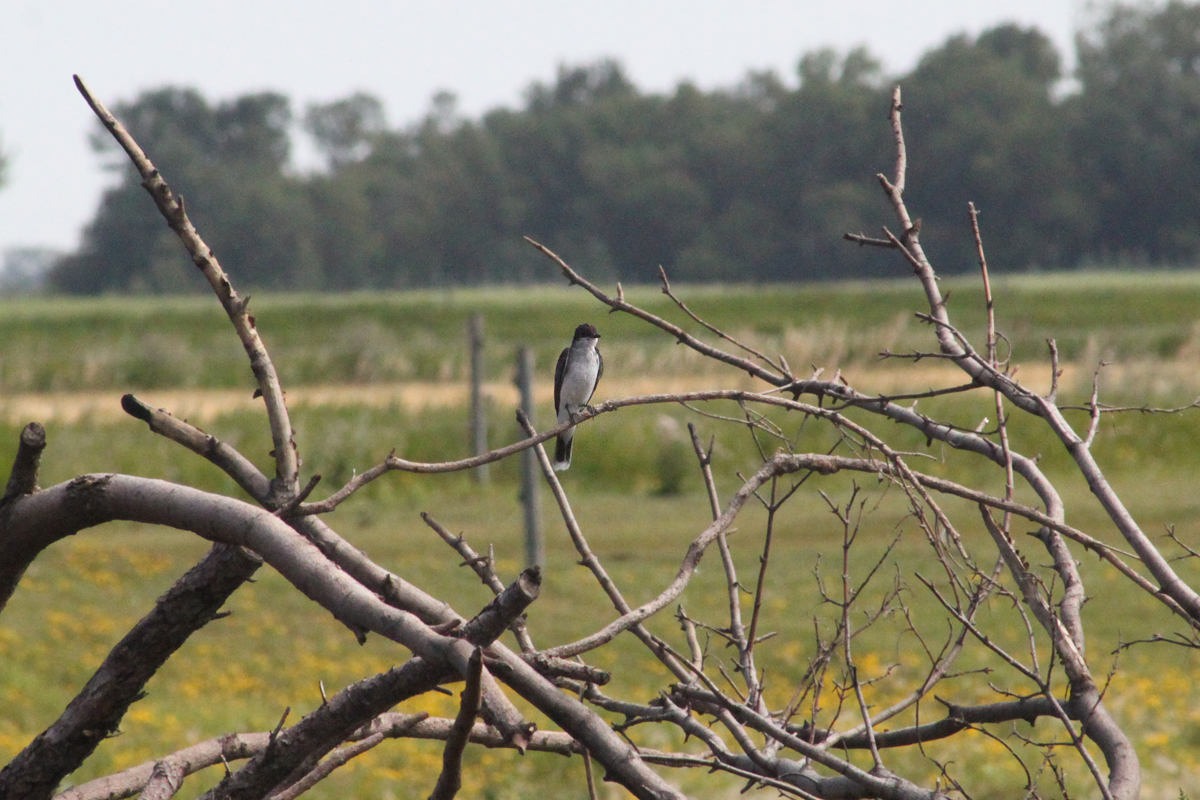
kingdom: Animalia
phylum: Chordata
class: Aves
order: Passeriformes
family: Tyrannidae
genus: Tyrannus
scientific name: Tyrannus tyrannus
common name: Eastern kingbird
